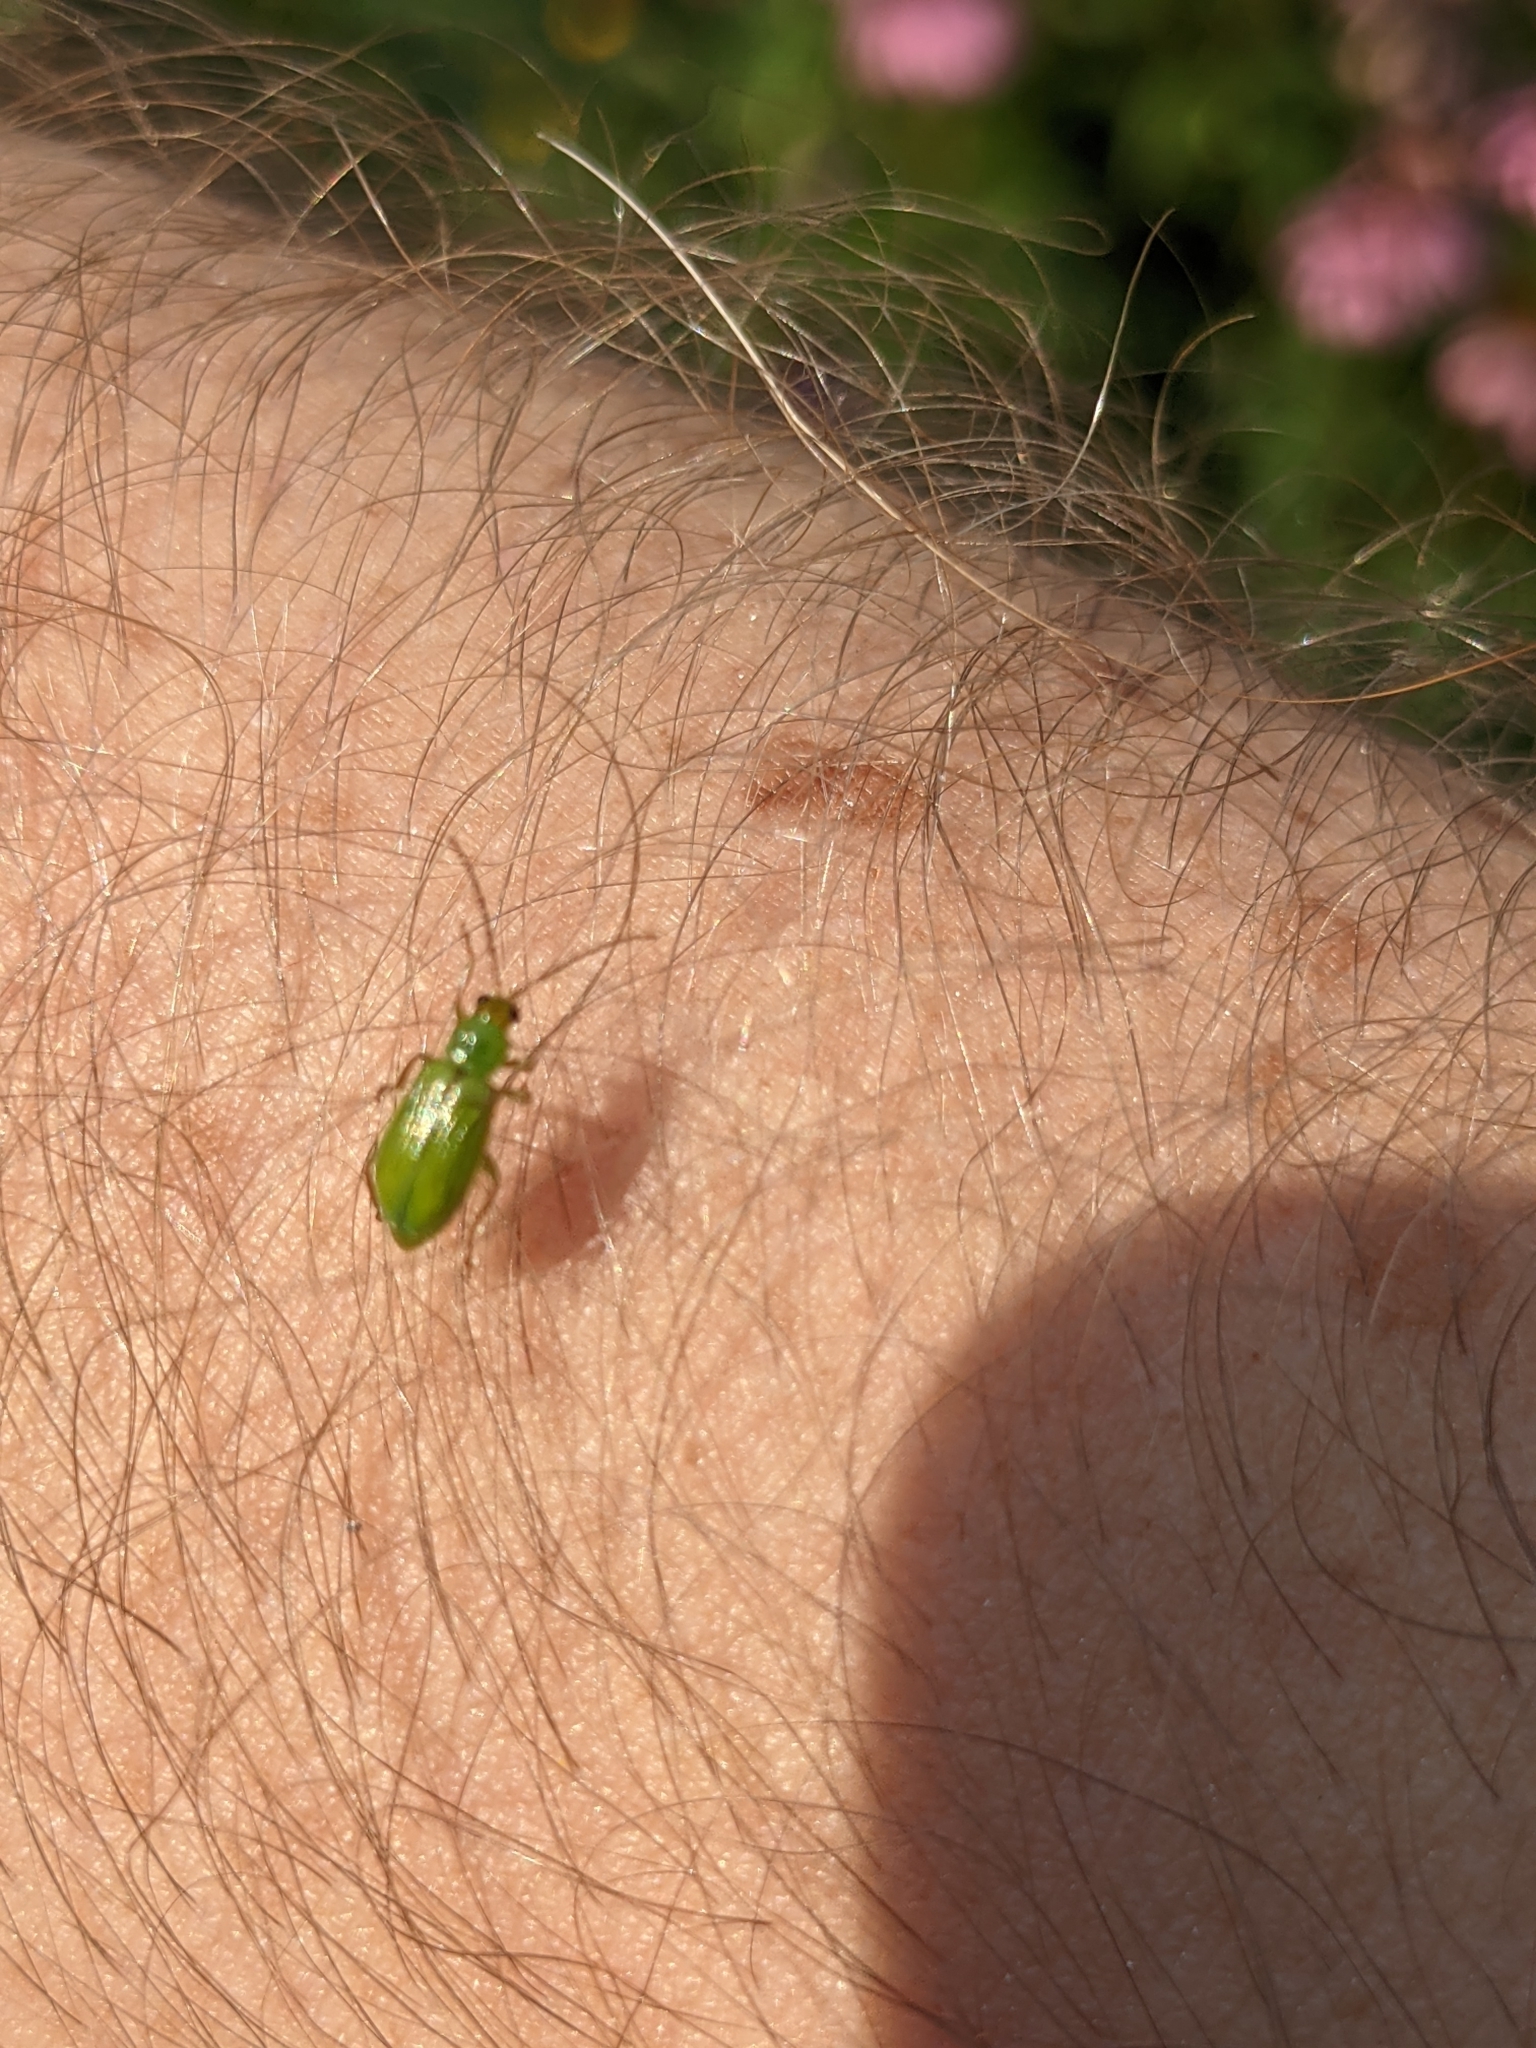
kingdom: Animalia
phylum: Arthropoda
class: Insecta
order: Coleoptera
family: Chrysomelidae
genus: Diabrotica
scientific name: Diabrotica barberi
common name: Northern corn rootworm
